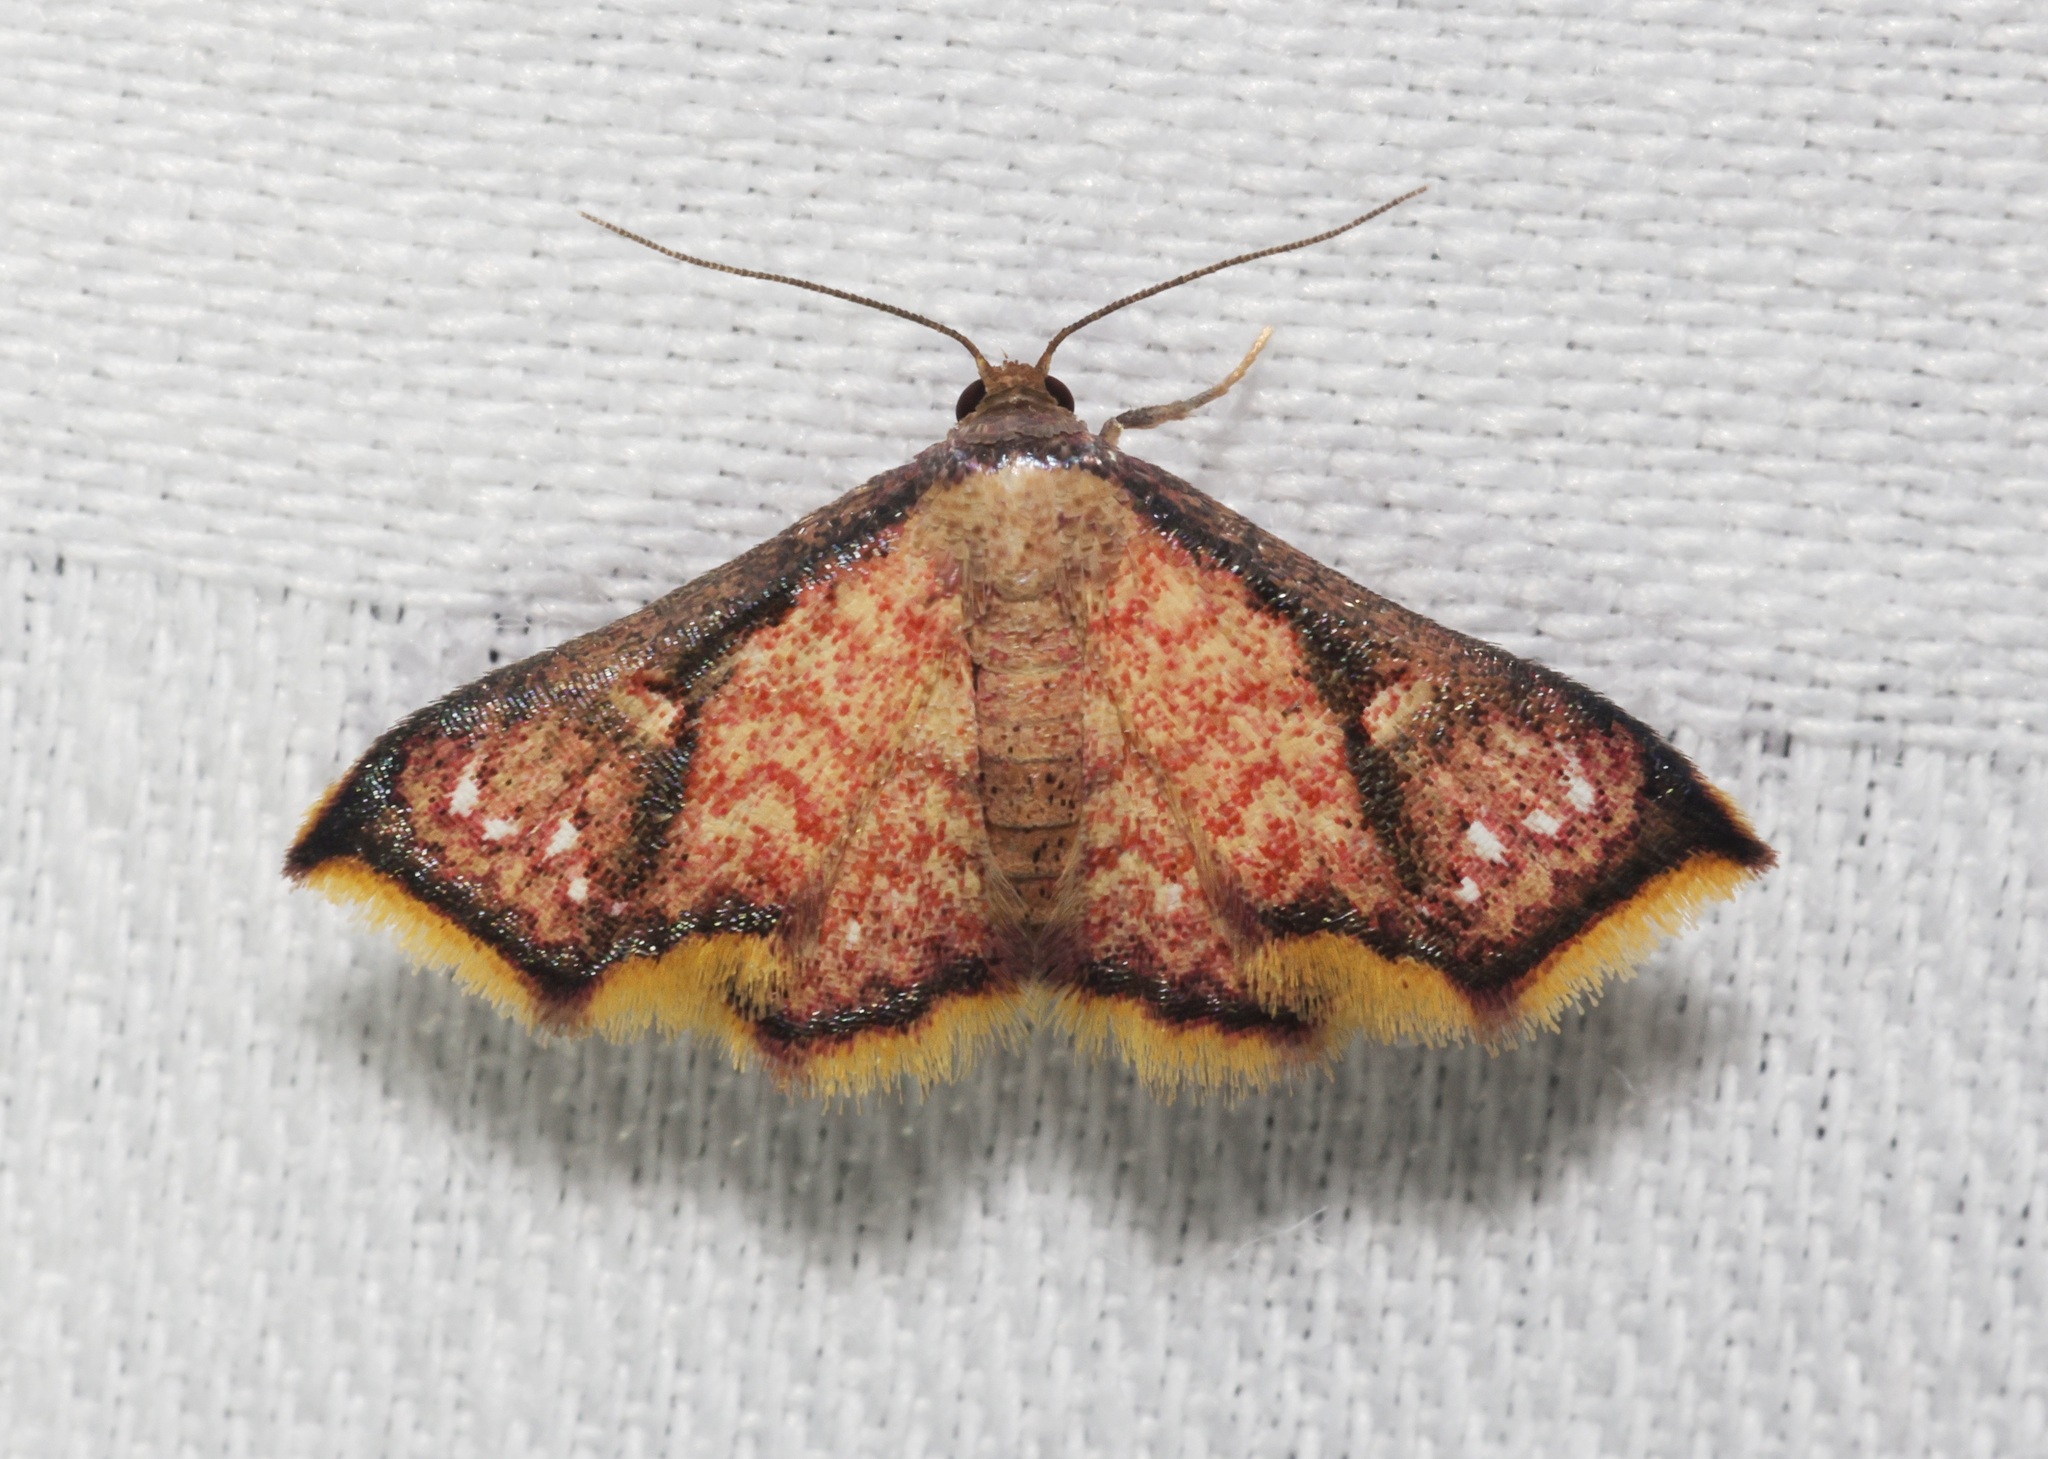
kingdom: Animalia
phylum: Arthropoda
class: Insecta
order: Lepidoptera
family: Noctuidae
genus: Enispa
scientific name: Enispa elataria
